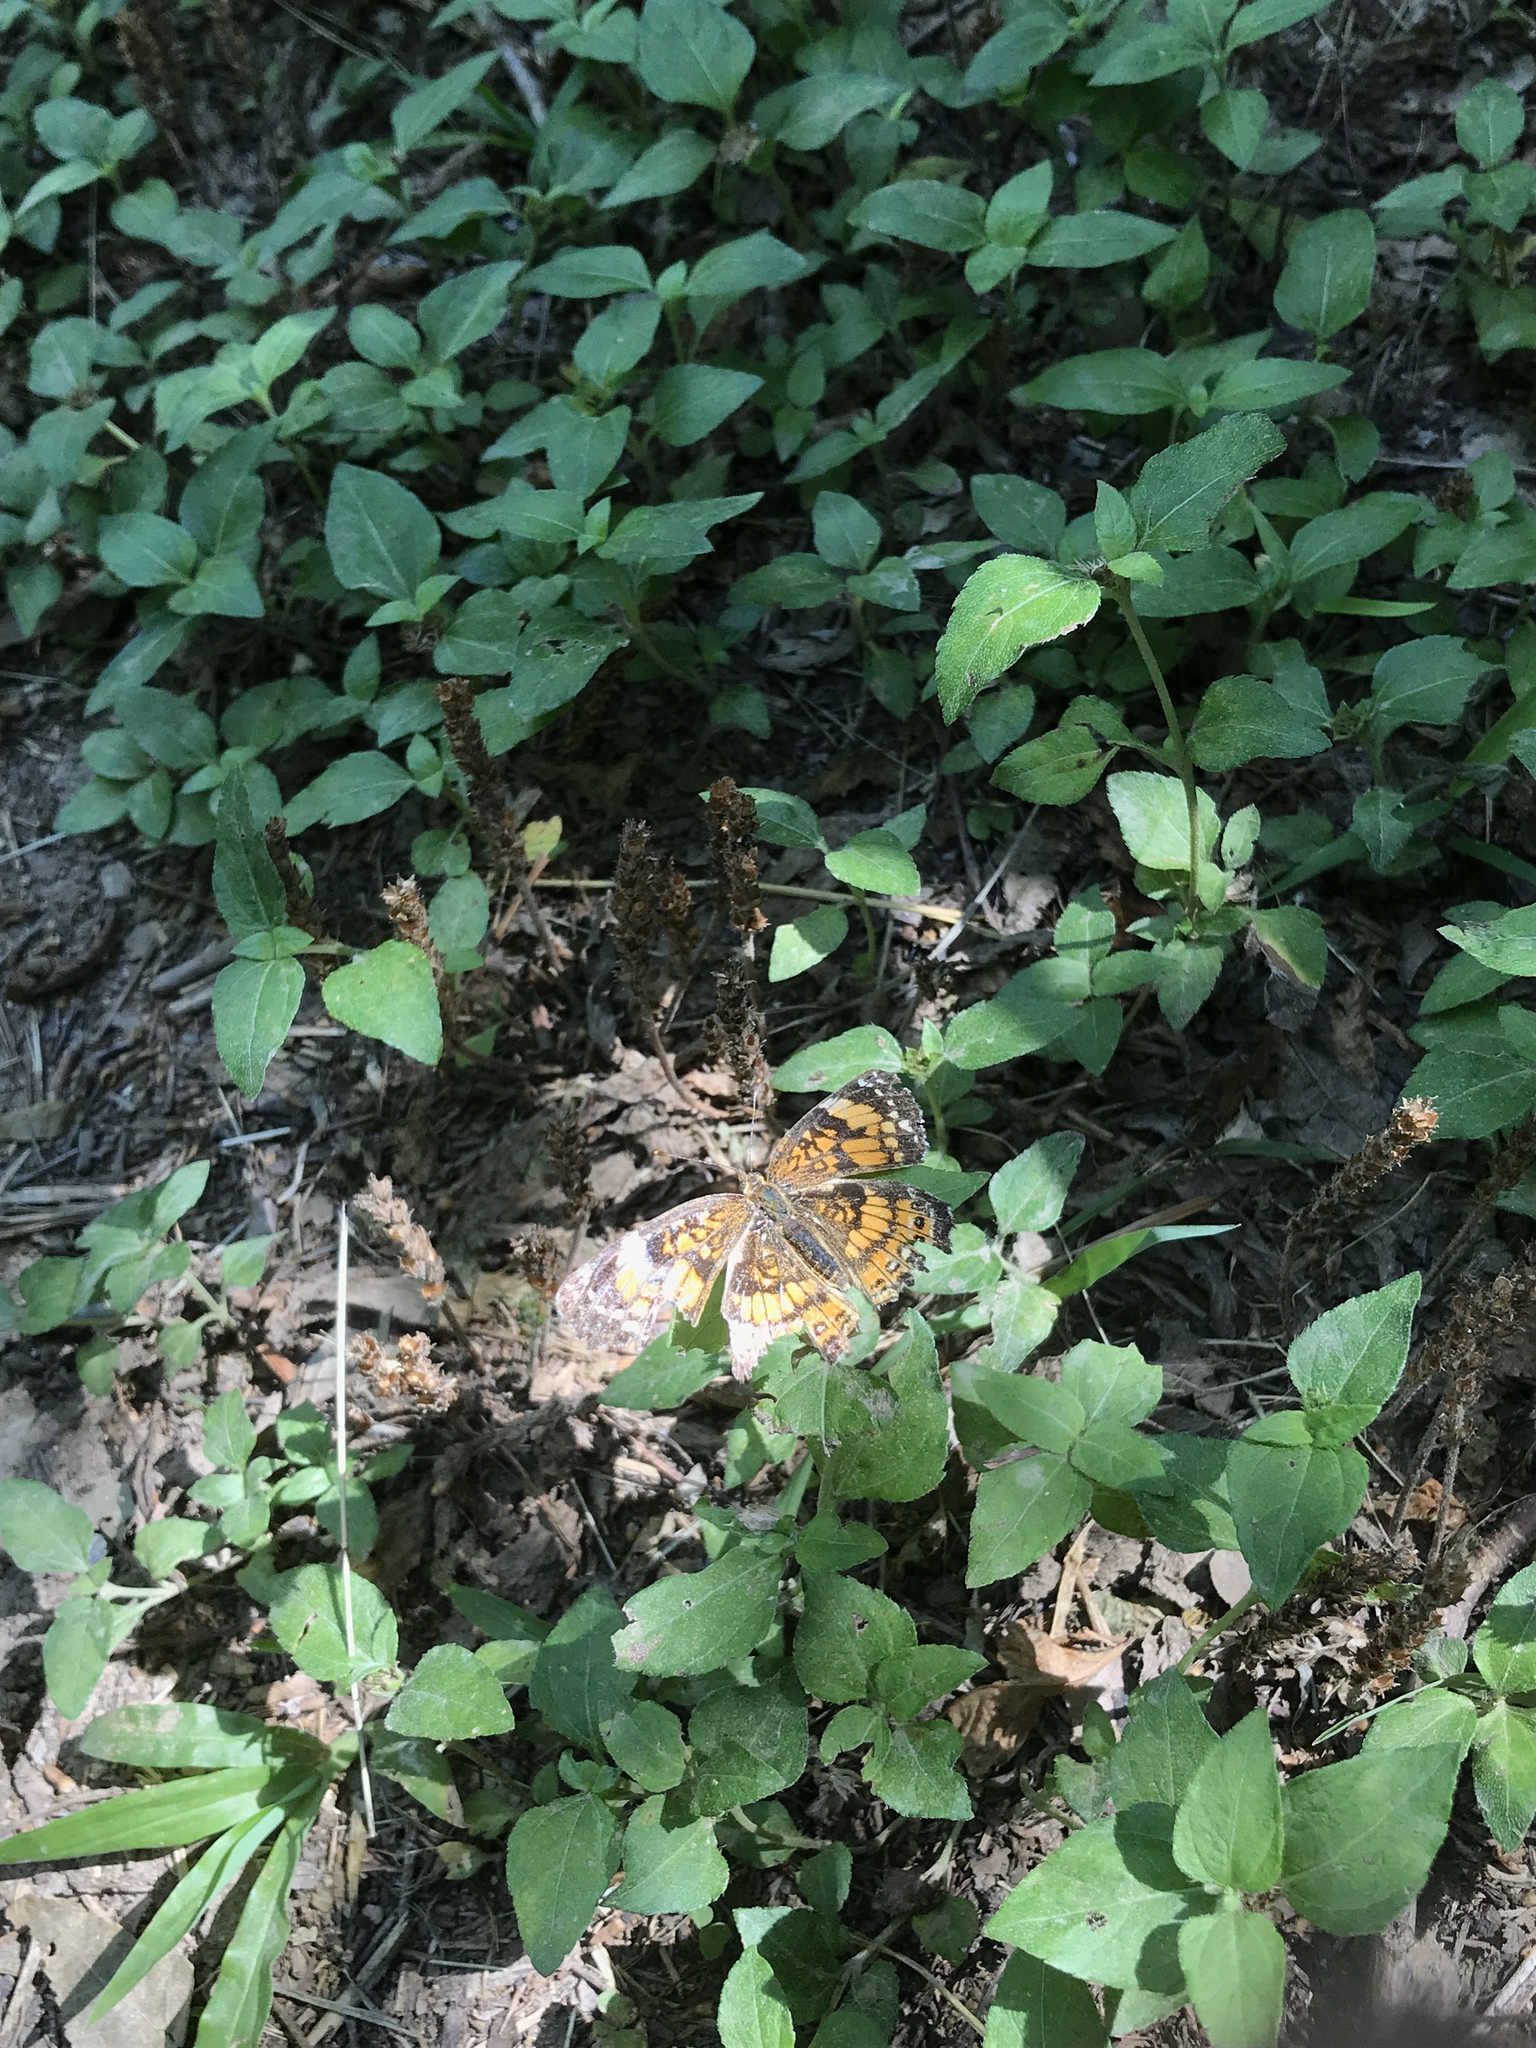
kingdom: Animalia
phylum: Arthropoda
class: Insecta
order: Lepidoptera
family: Nymphalidae
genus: Chlosyne
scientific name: Chlosyne nycteis
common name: Silvery checkerspot
